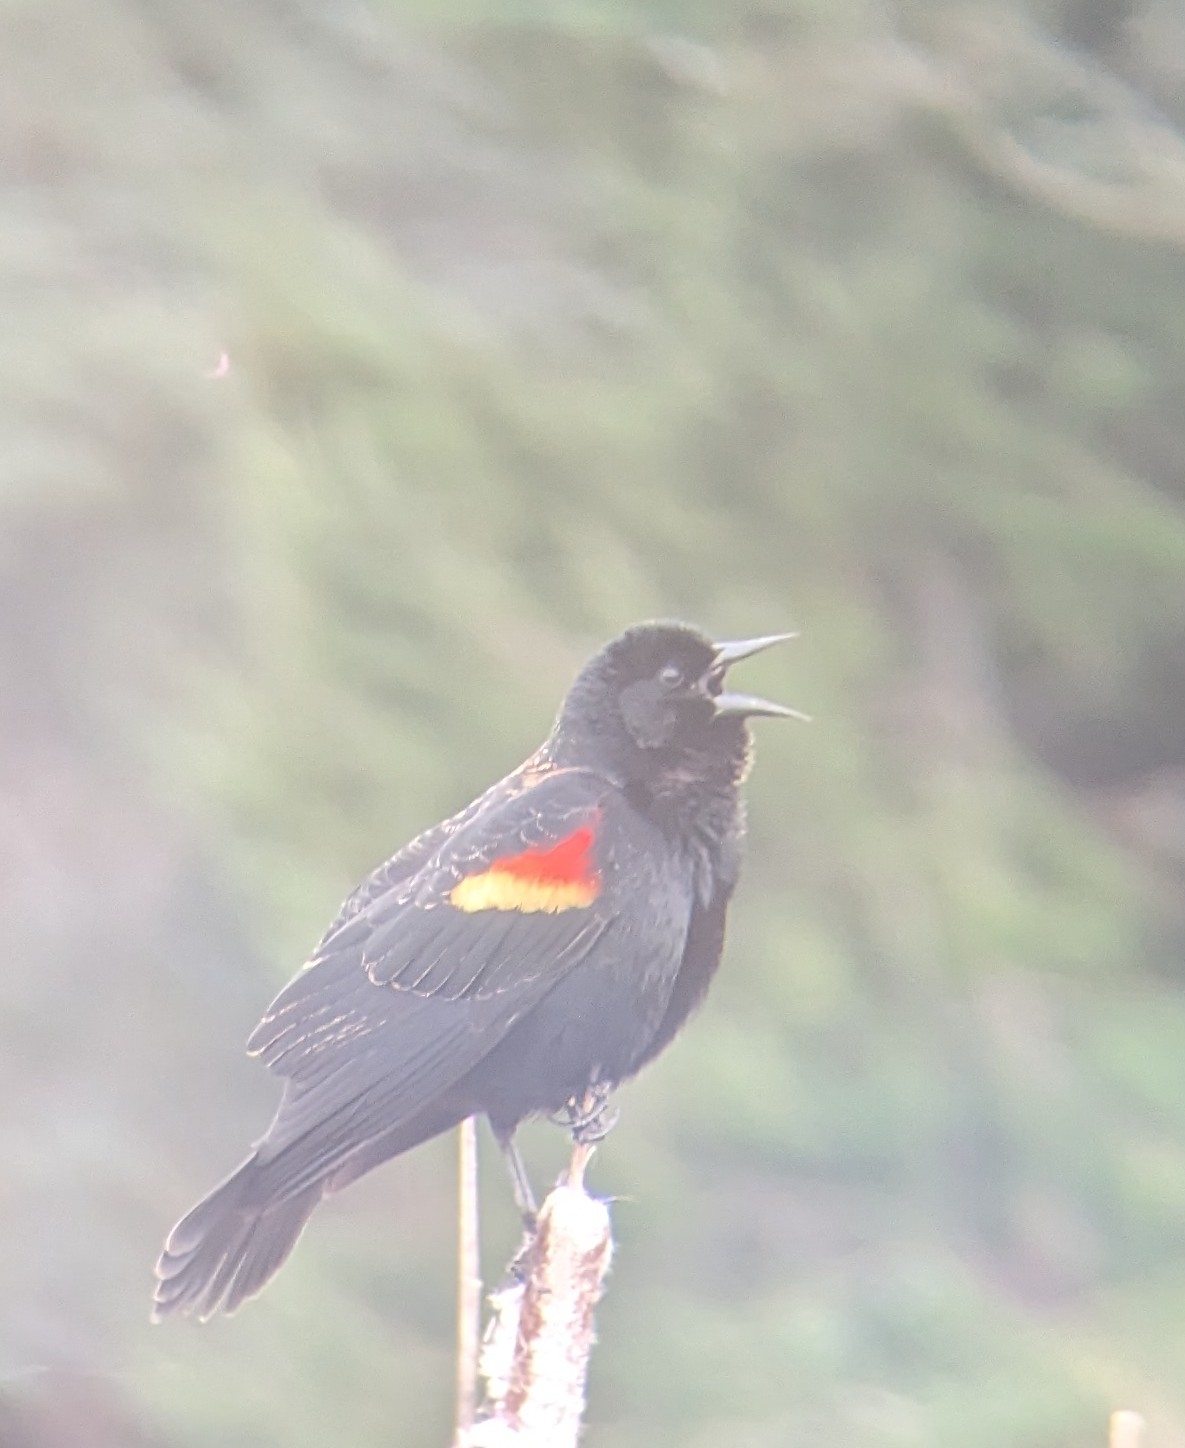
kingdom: Animalia
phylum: Chordata
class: Aves
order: Passeriformes
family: Icteridae
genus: Agelaius
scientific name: Agelaius phoeniceus
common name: Red-winged blackbird
